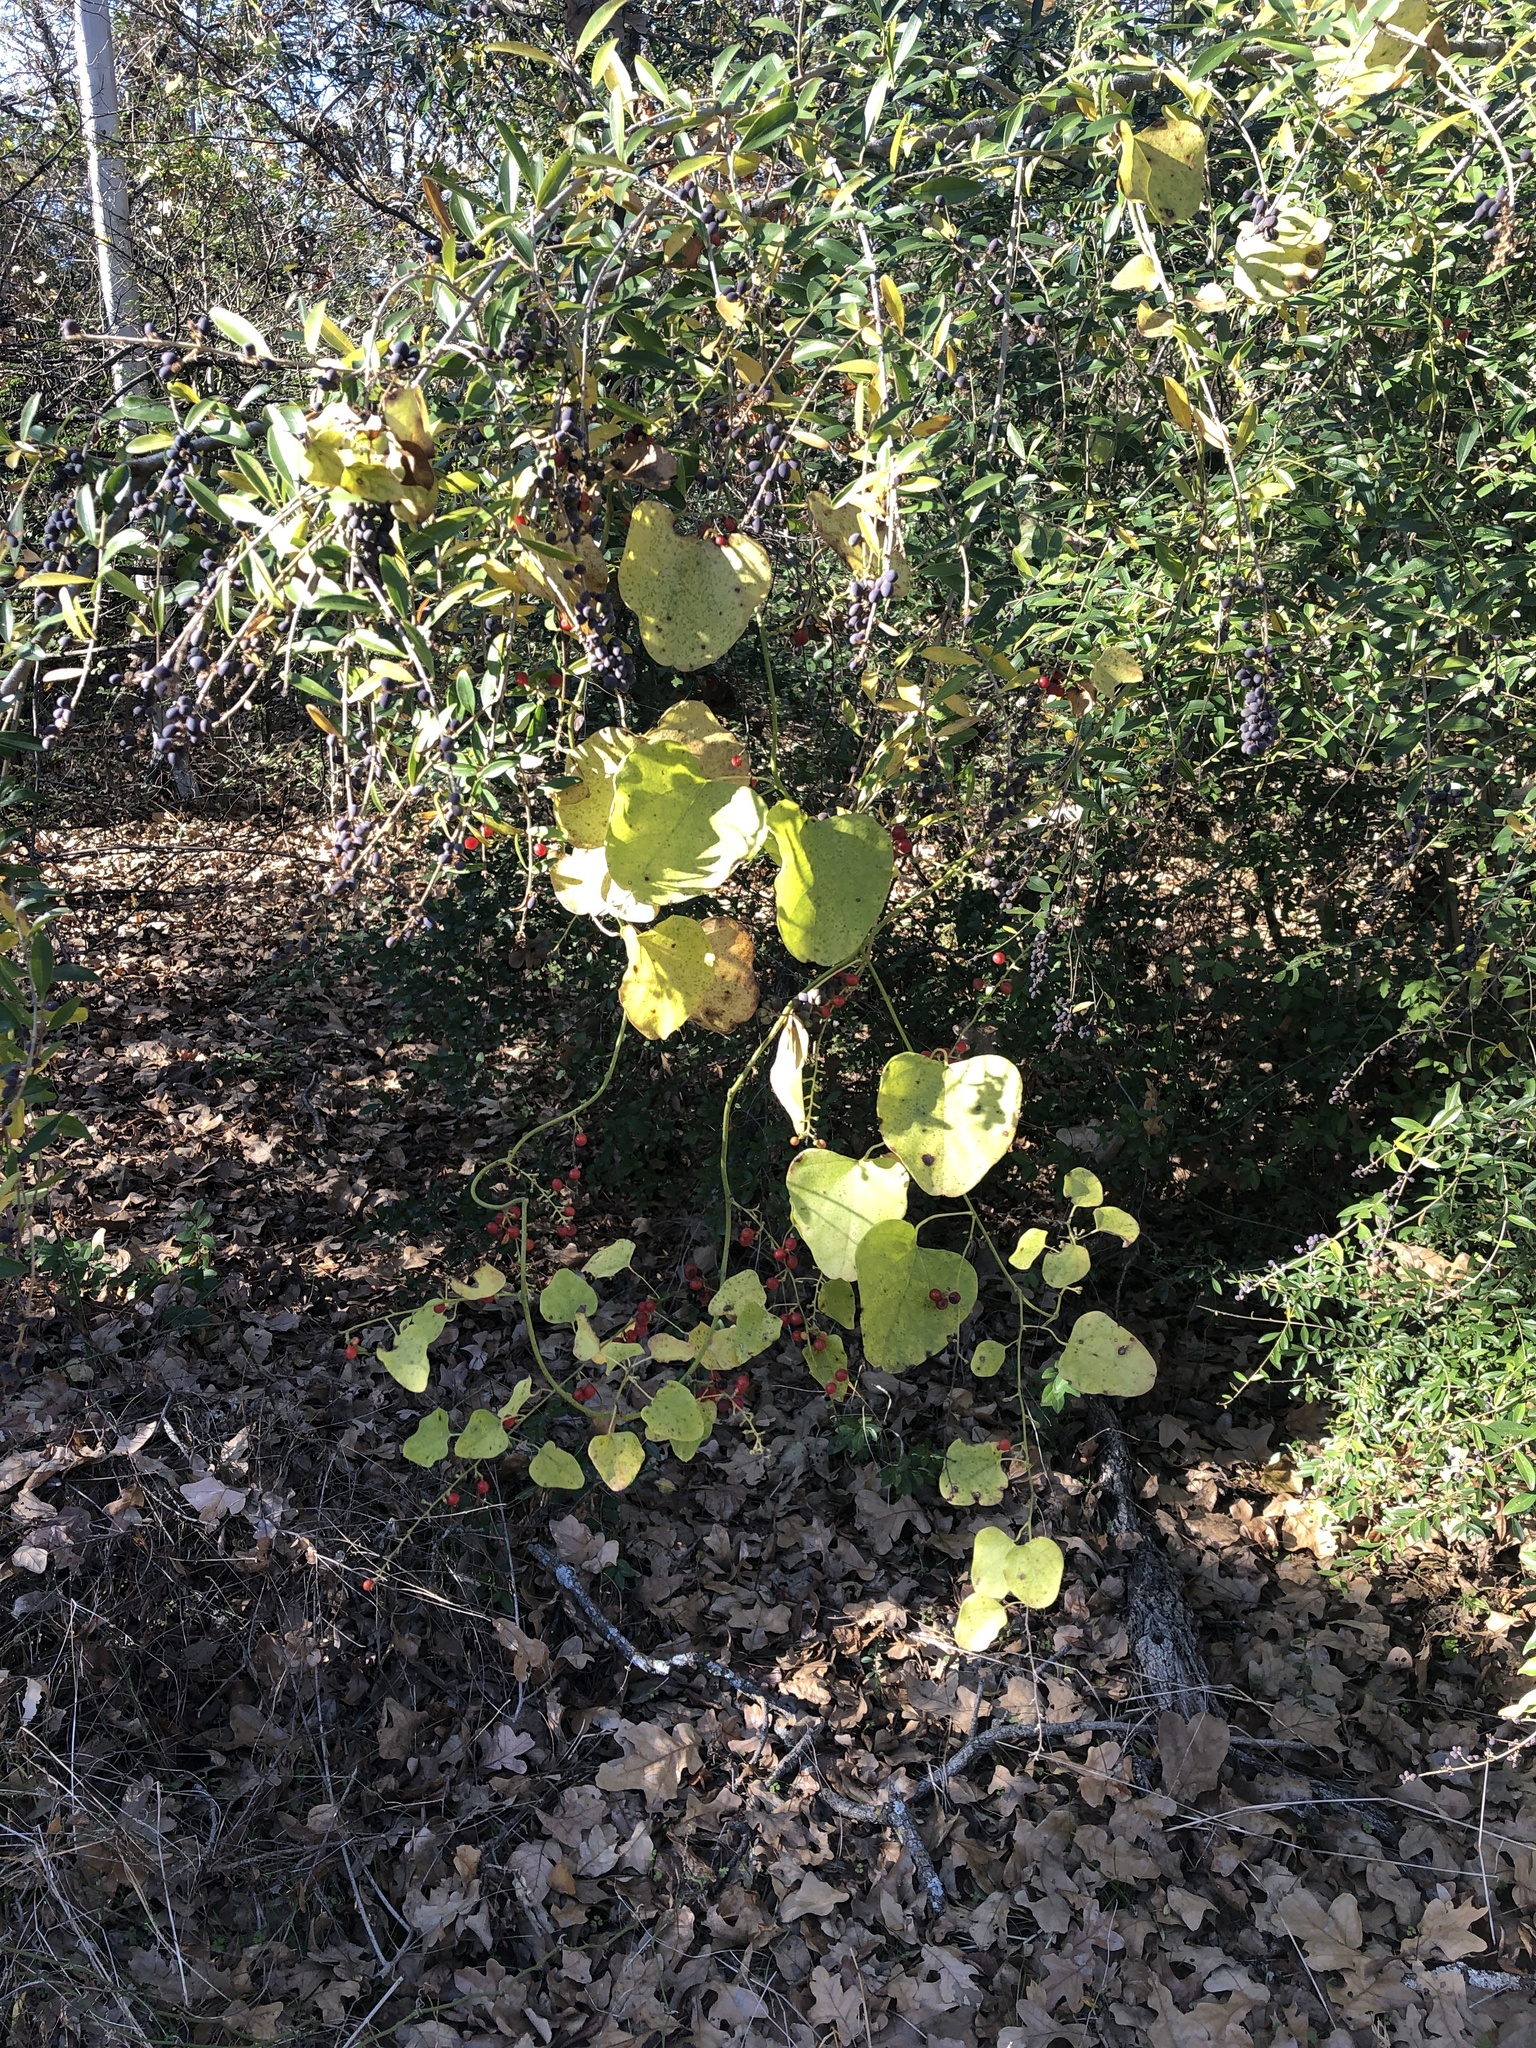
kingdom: Plantae
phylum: Tracheophyta
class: Magnoliopsida
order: Ranunculales
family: Menispermaceae
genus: Cocculus
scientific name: Cocculus carolinus
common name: Carolina moonseed
